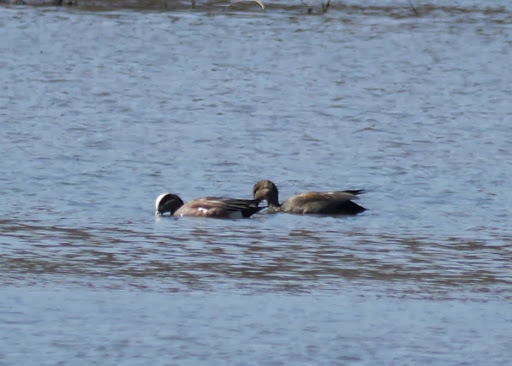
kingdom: Animalia
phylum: Chordata
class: Aves
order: Anseriformes
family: Anatidae
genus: Mareca
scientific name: Mareca americana
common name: American wigeon
